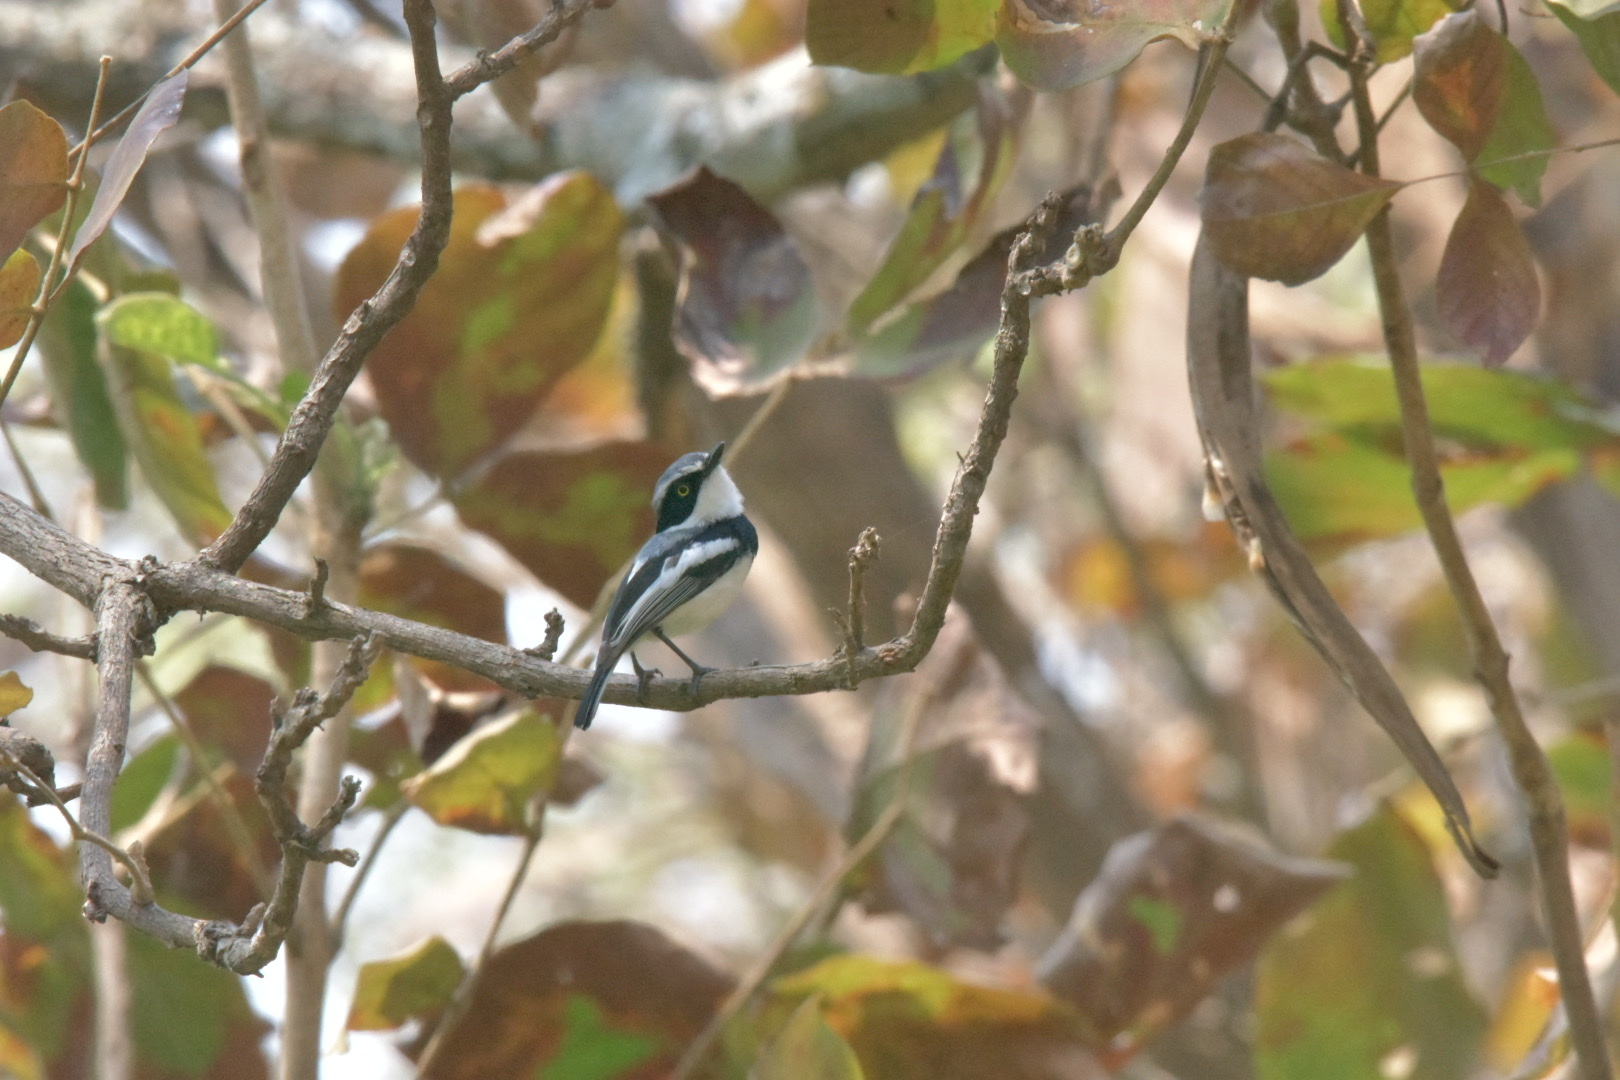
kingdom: Animalia
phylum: Chordata
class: Aves
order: Passeriformes
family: Platysteiridae
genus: Batis
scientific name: Batis molitor
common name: Chinspot batis
